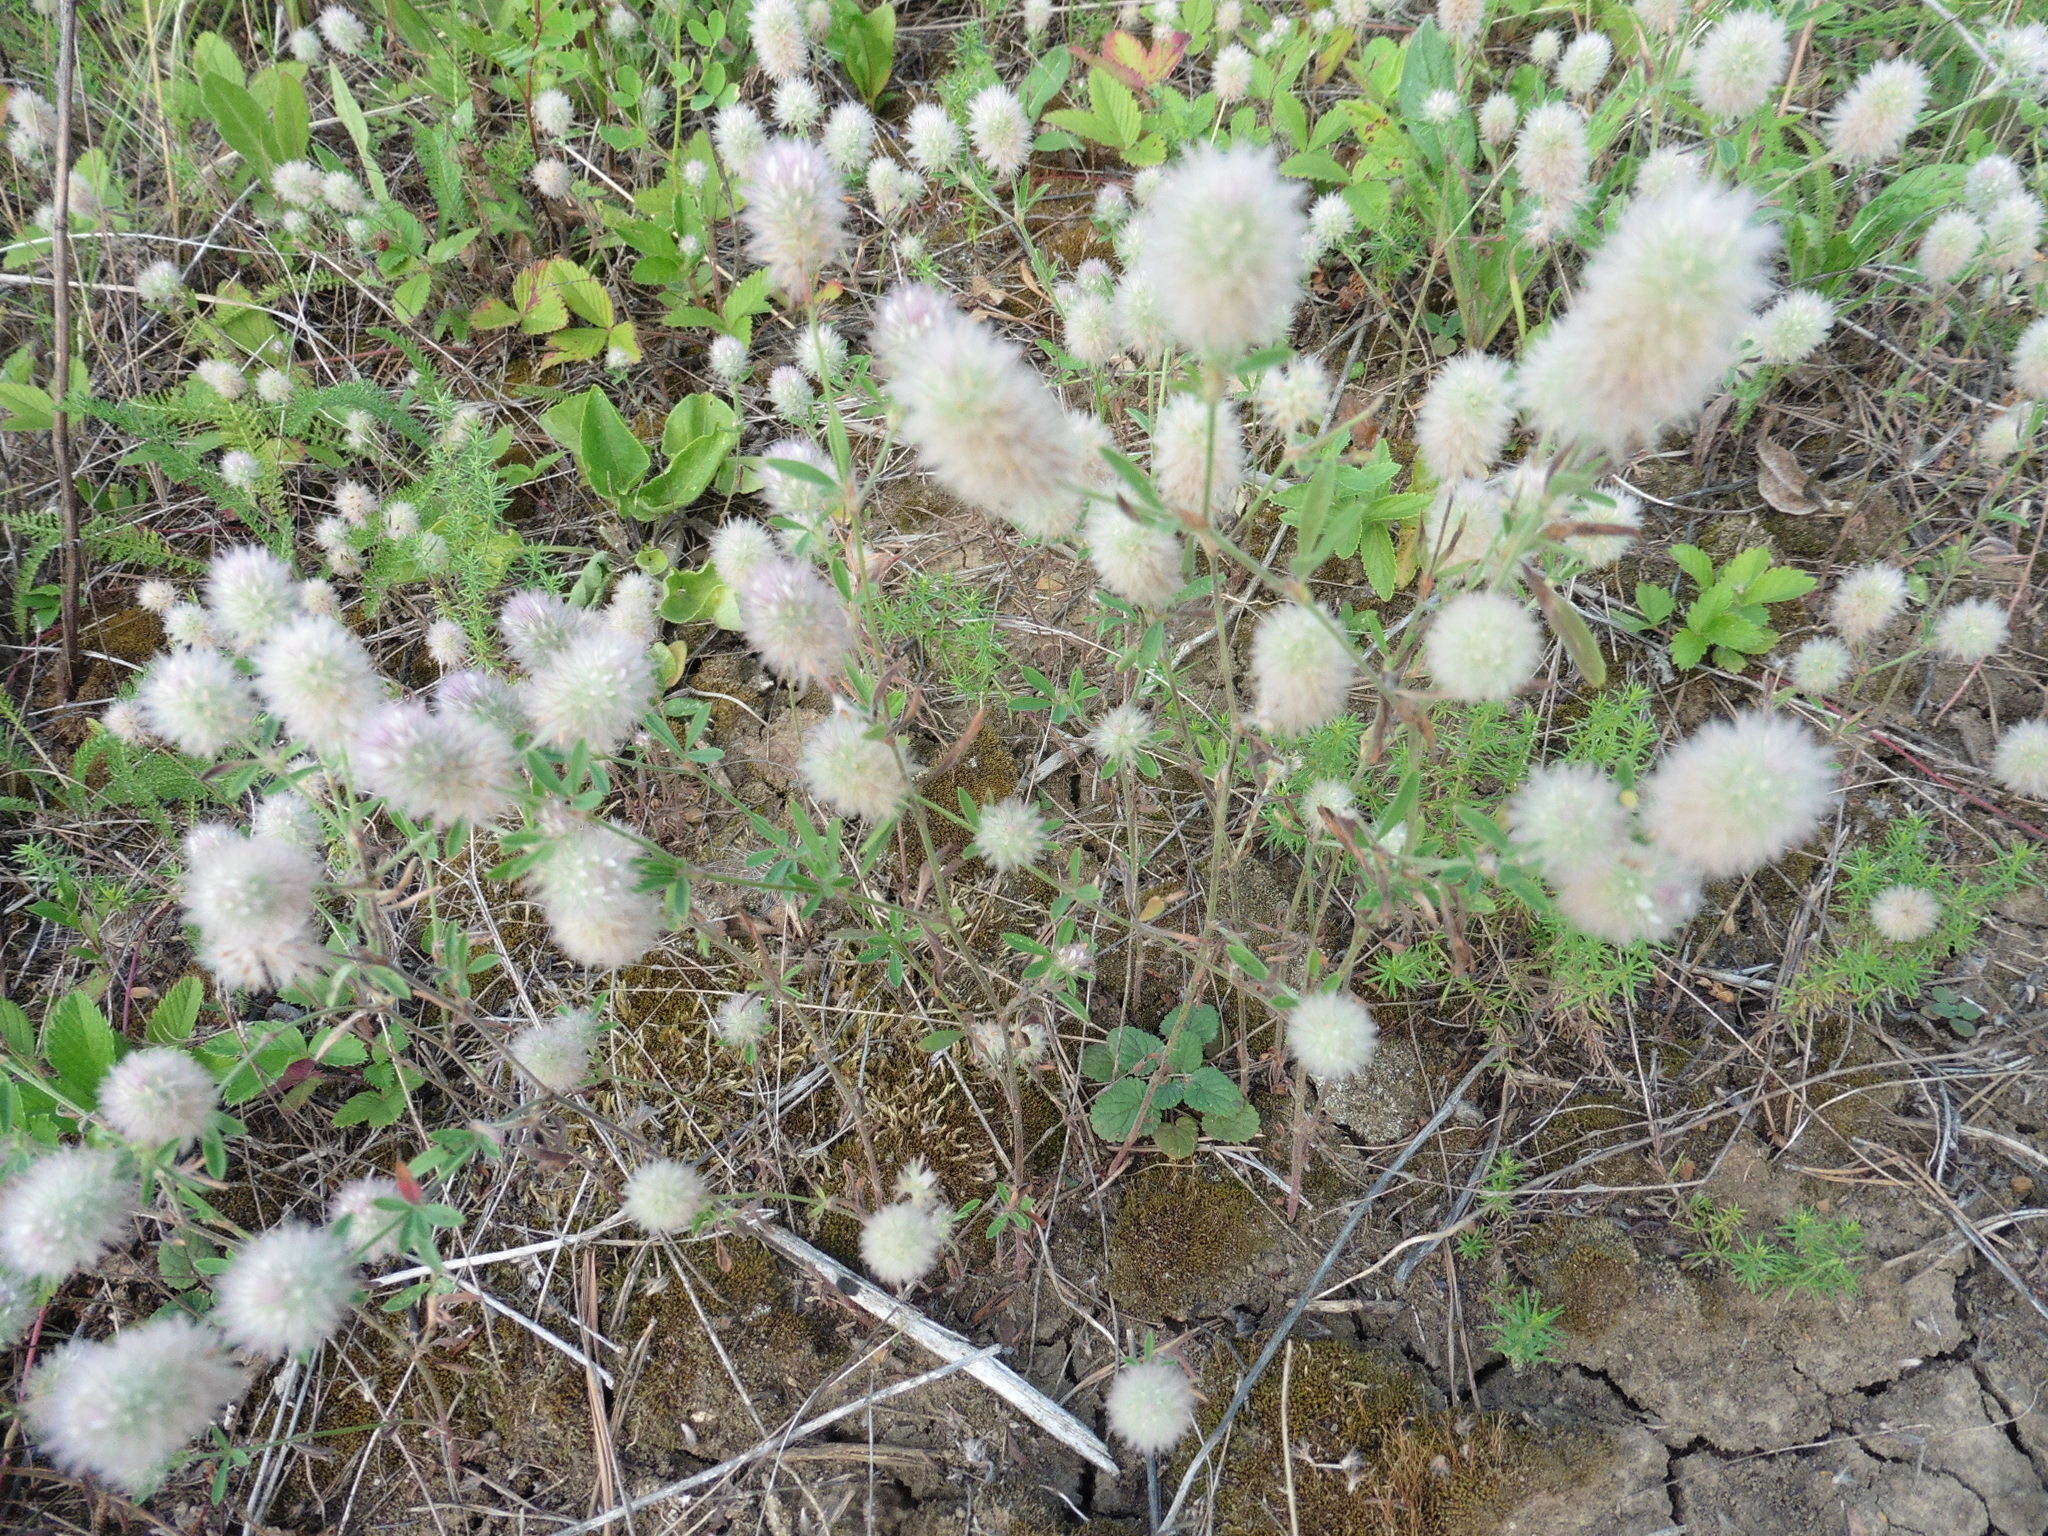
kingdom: Plantae
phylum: Tracheophyta
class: Magnoliopsida
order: Fabales
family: Fabaceae
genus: Trifolium
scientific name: Trifolium arvense
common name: Hare's-foot clover
